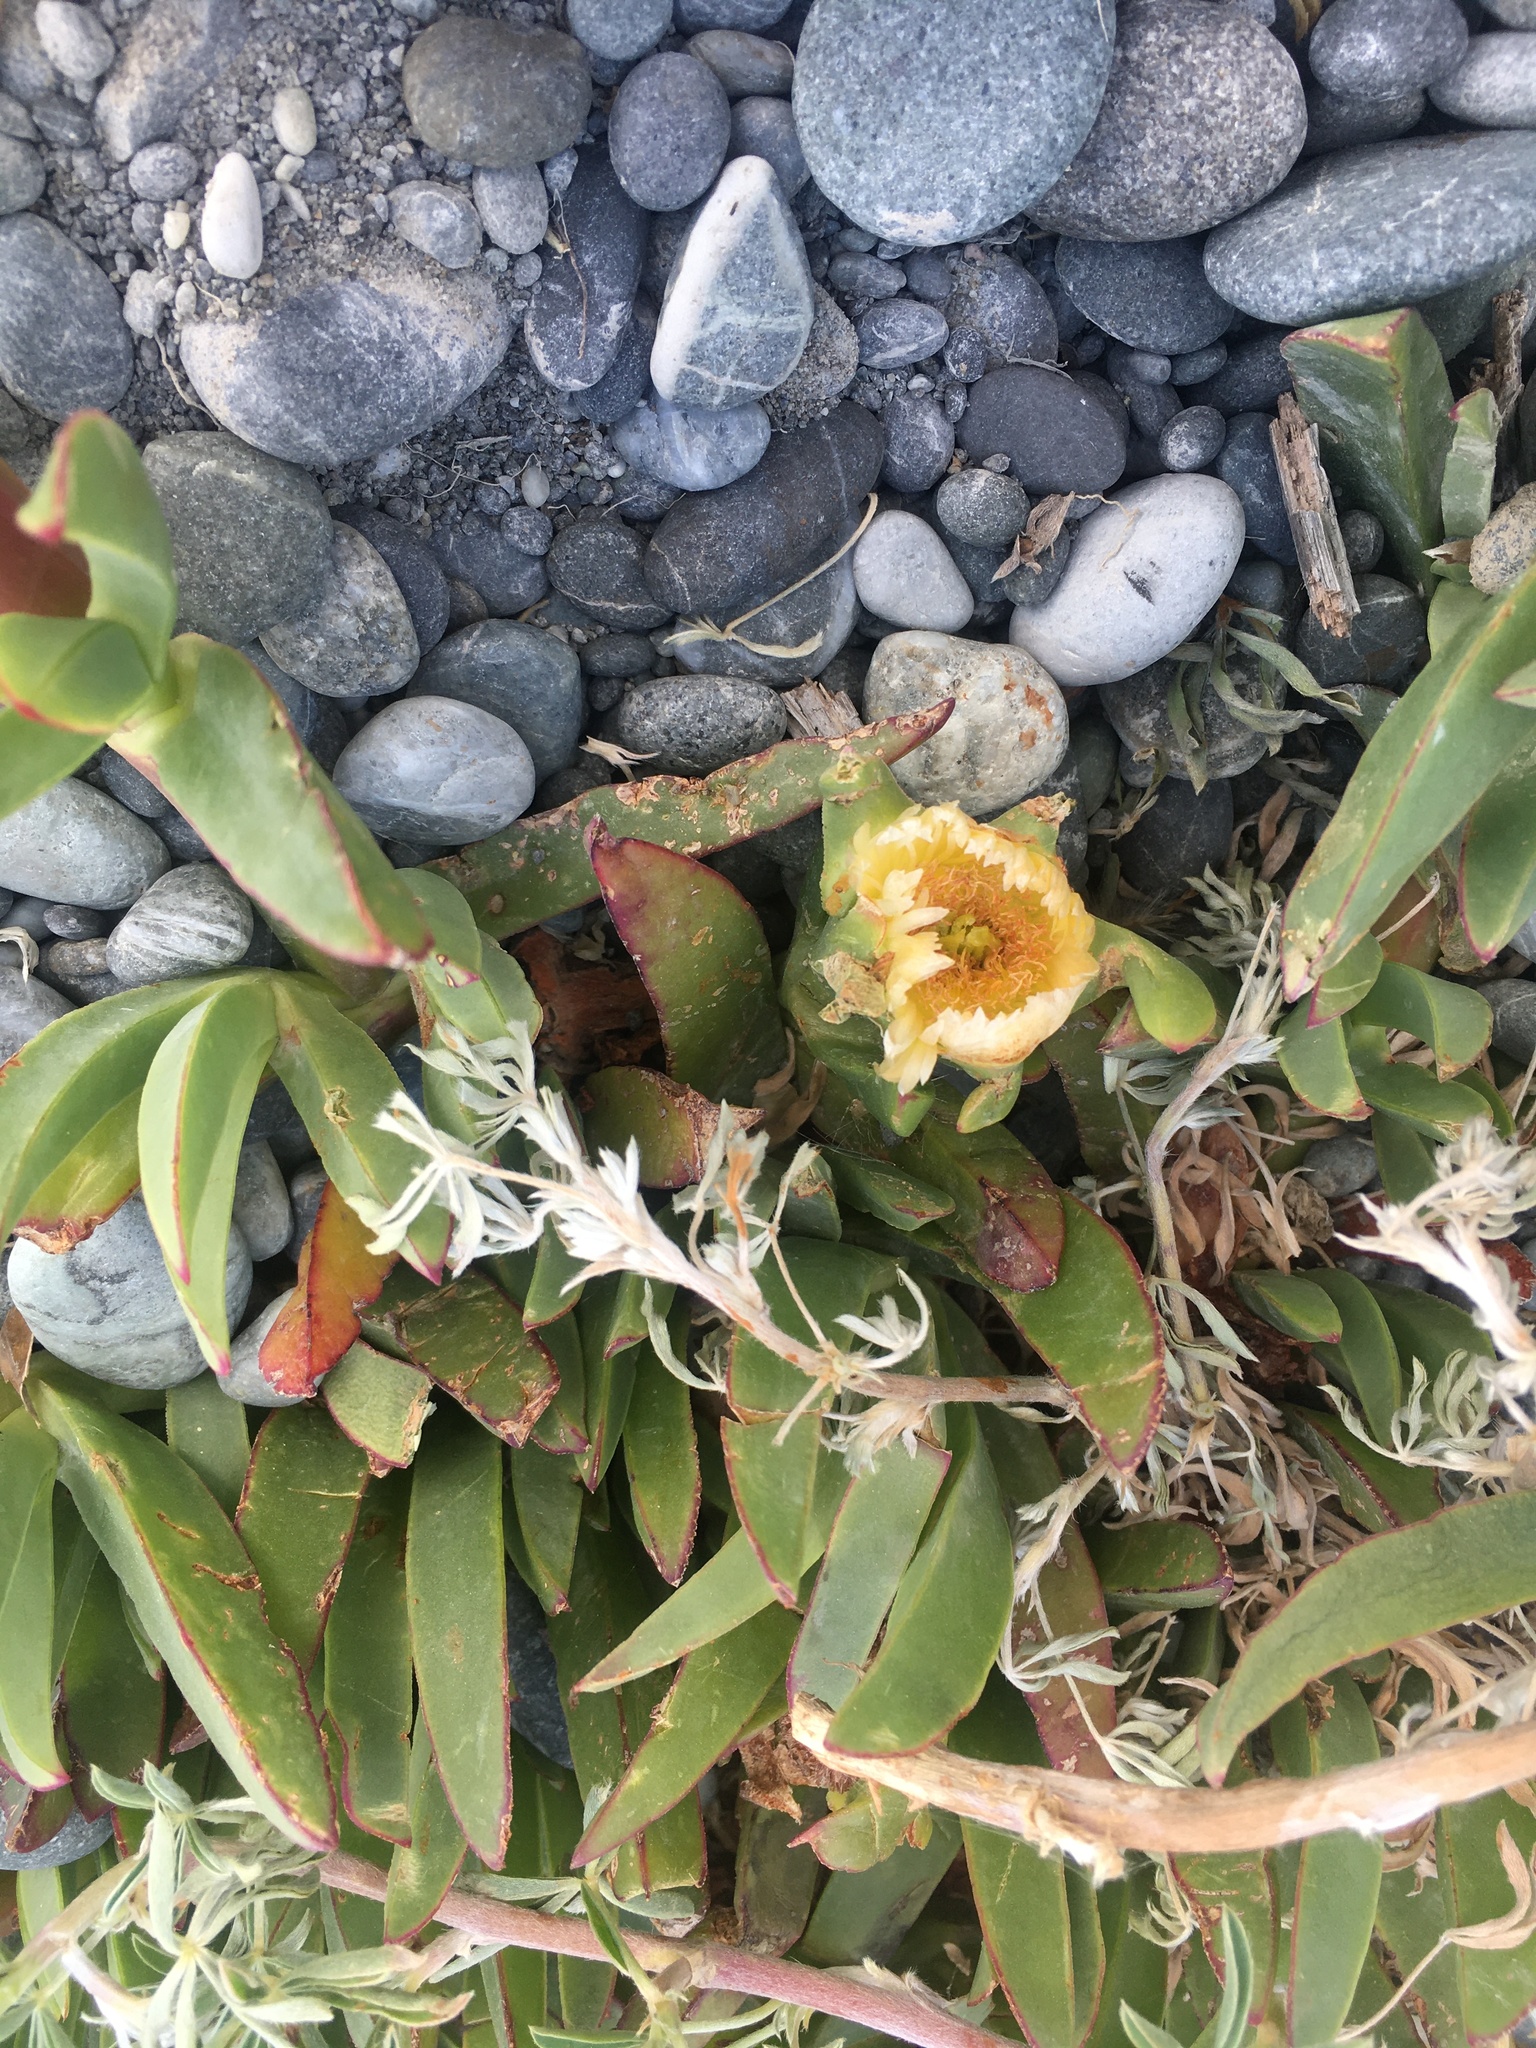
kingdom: Plantae
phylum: Tracheophyta
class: Magnoliopsida
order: Caryophyllales
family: Aizoaceae
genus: Carpobrotus
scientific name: Carpobrotus edulis
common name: Hottentot-fig
